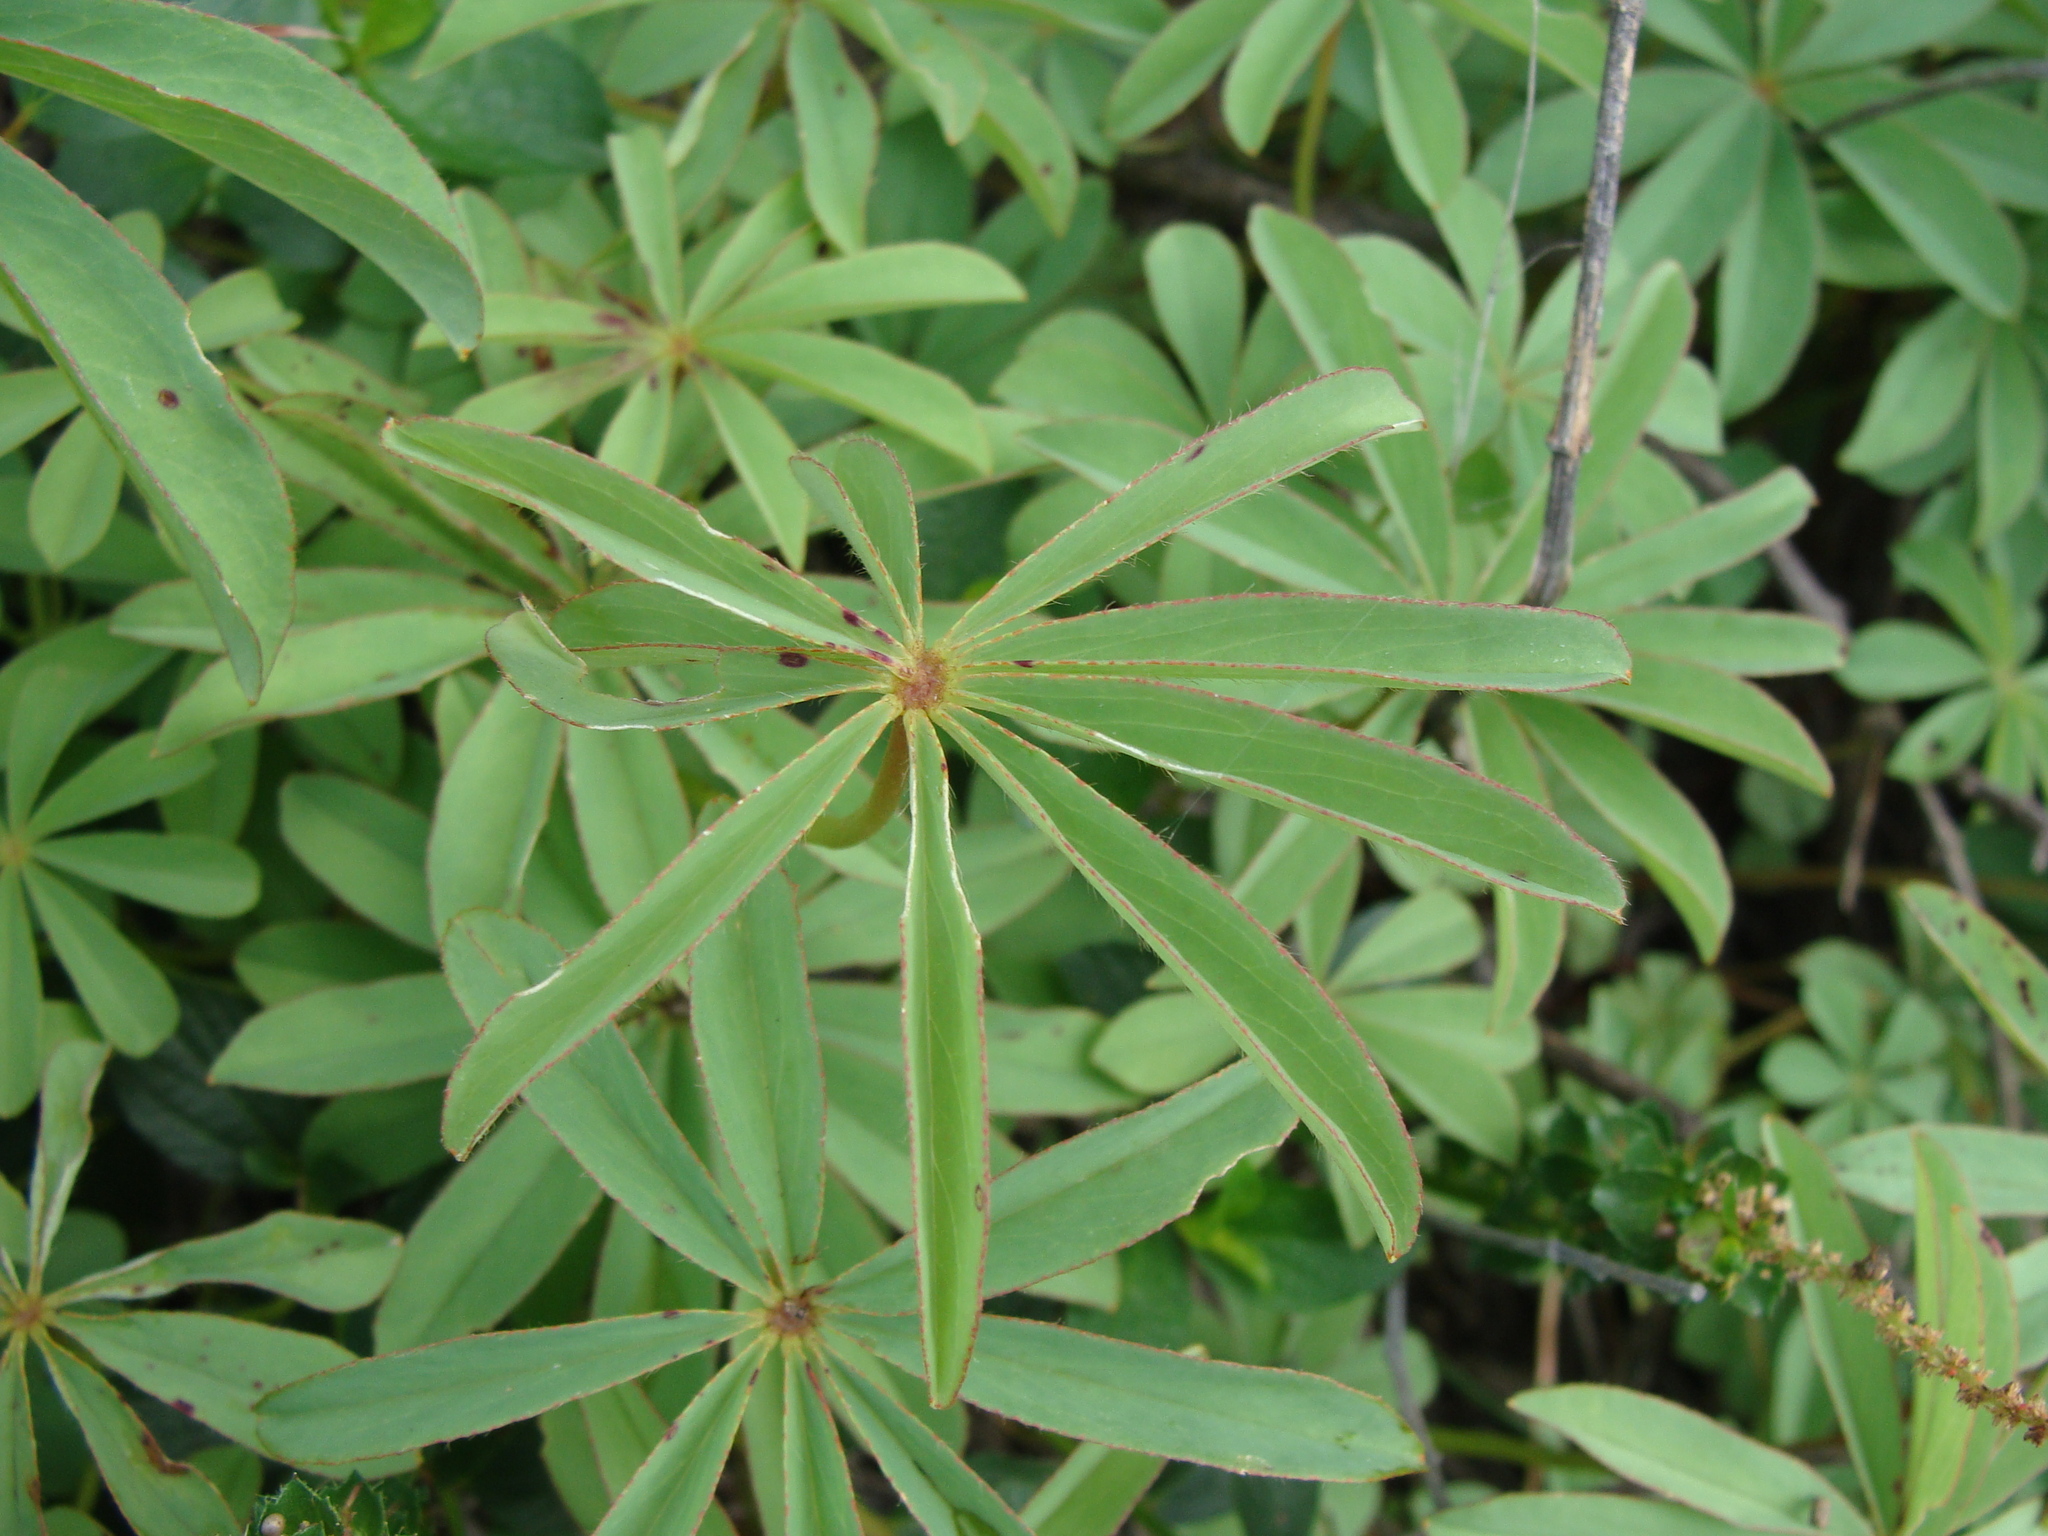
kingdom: Plantae
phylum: Tracheophyta
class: Magnoliopsida
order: Oxalidales
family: Oxalidaceae
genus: Oxalis
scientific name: Oxalis decaphylla
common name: Ten-leaved pink-sorrel
